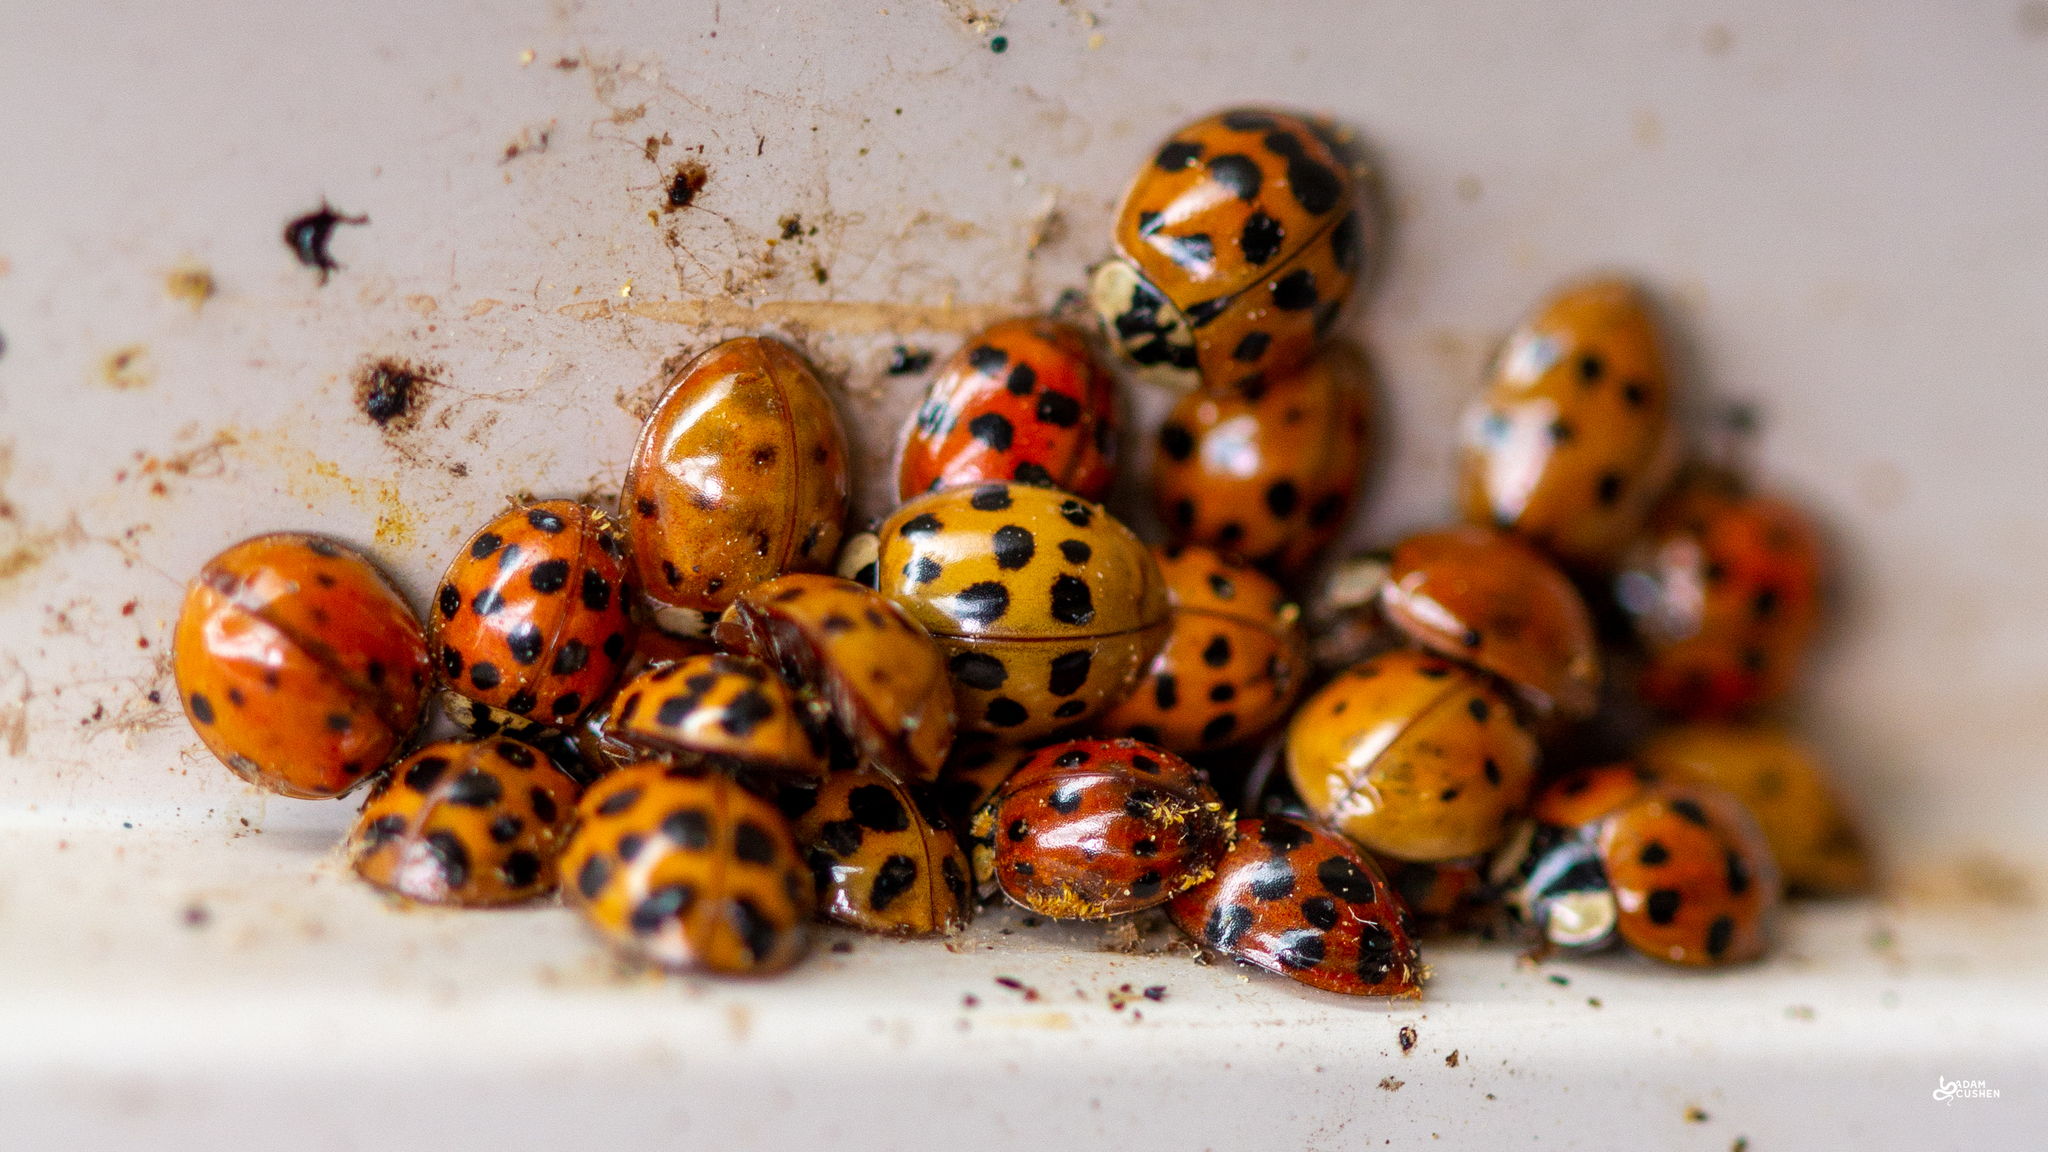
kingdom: Animalia
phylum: Arthropoda
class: Insecta
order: Coleoptera
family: Coccinellidae
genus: Harmonia
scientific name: Harmonia axyridis
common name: Harlequin ladybird
